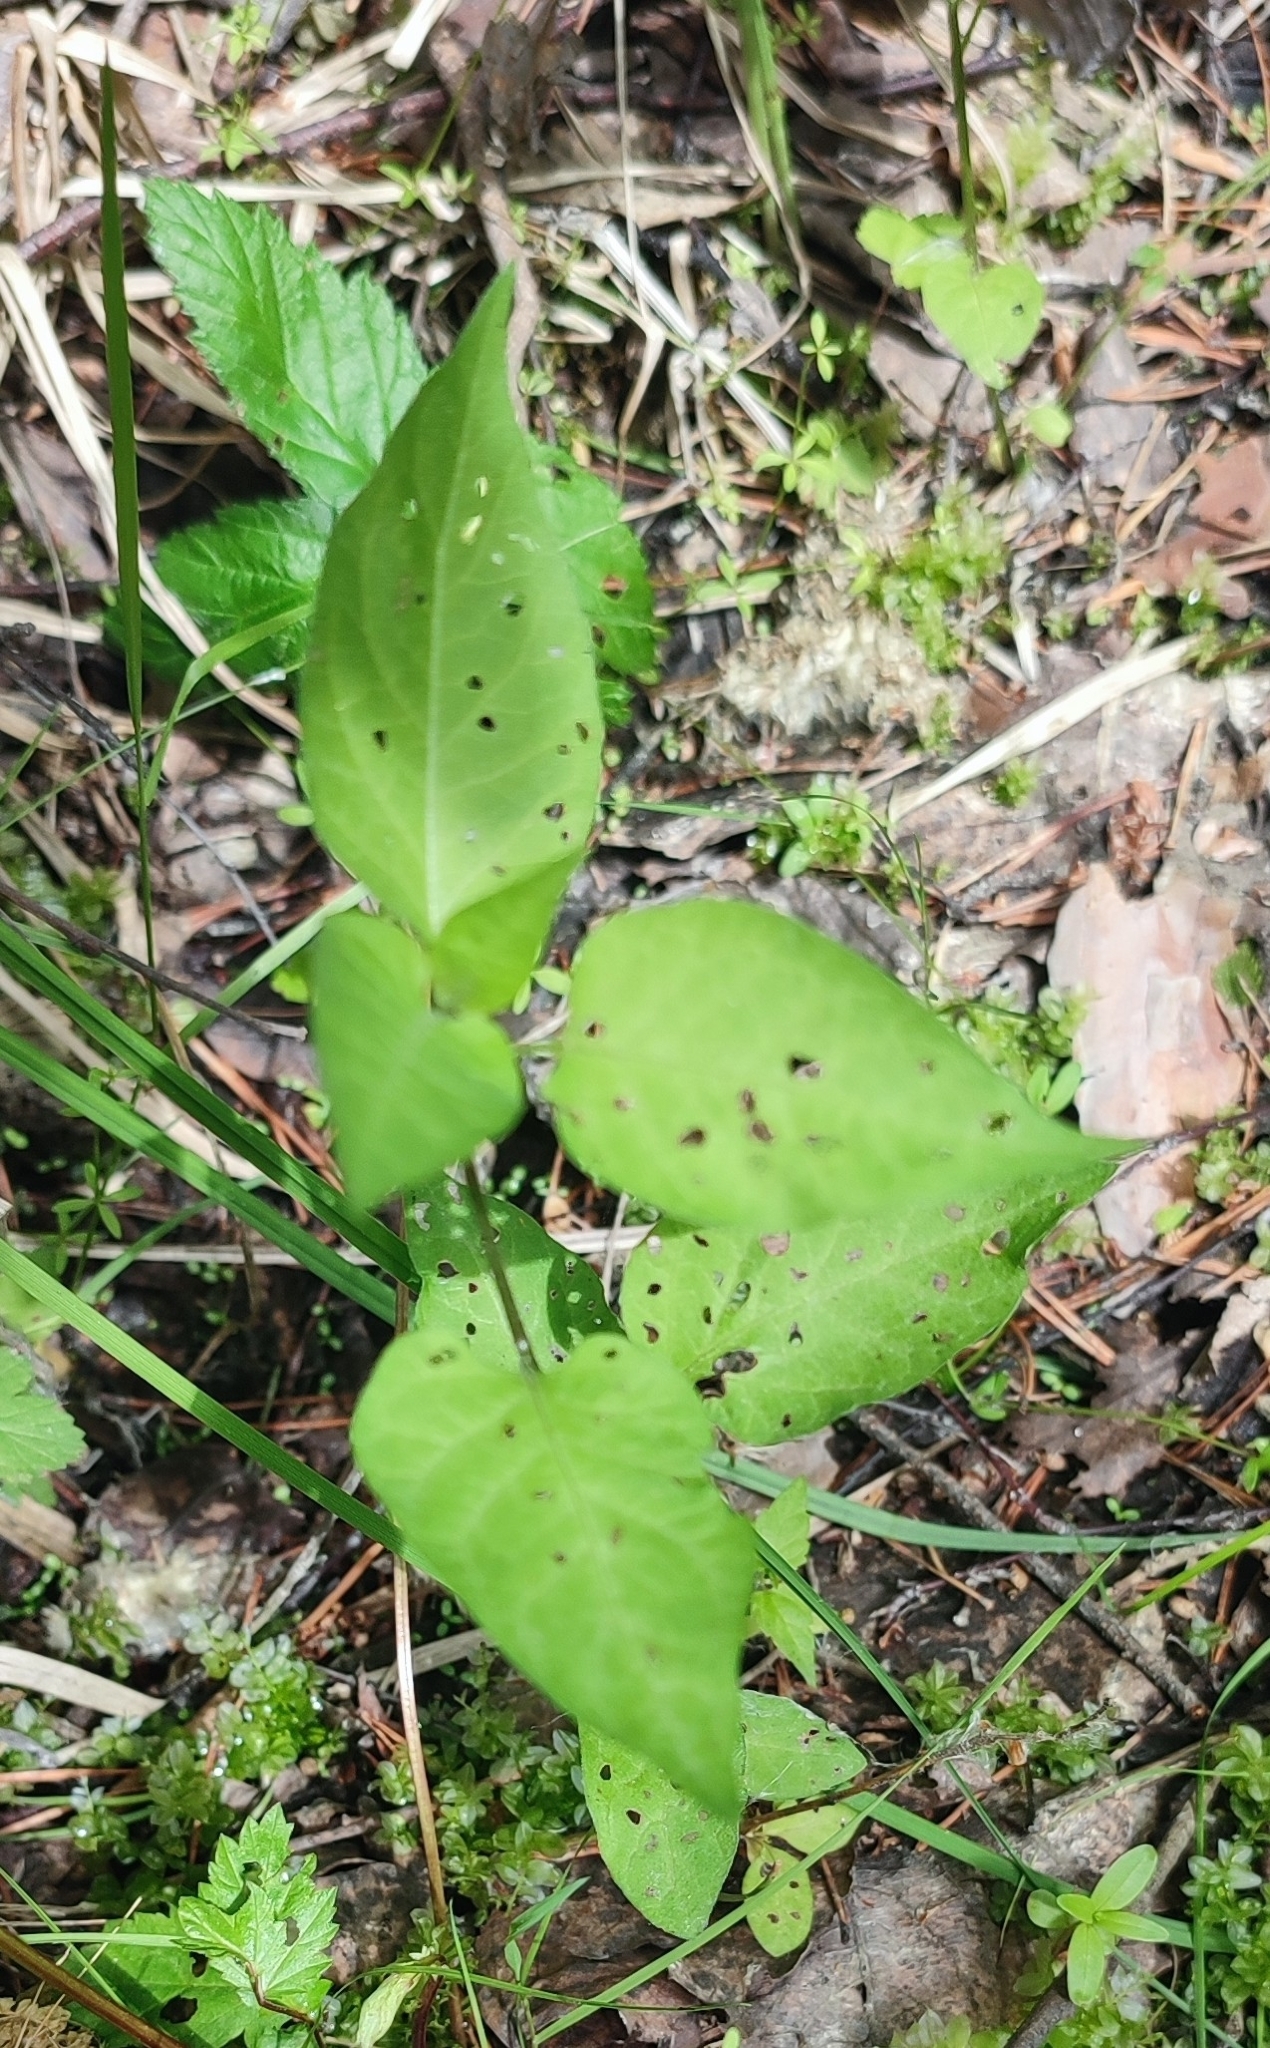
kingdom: Plantae
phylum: Tracheophyta
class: Magnoliopsida
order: Solanales
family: Solanaceae
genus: Solanum
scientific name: Solanum dulcamara
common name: Climbing nightshade
